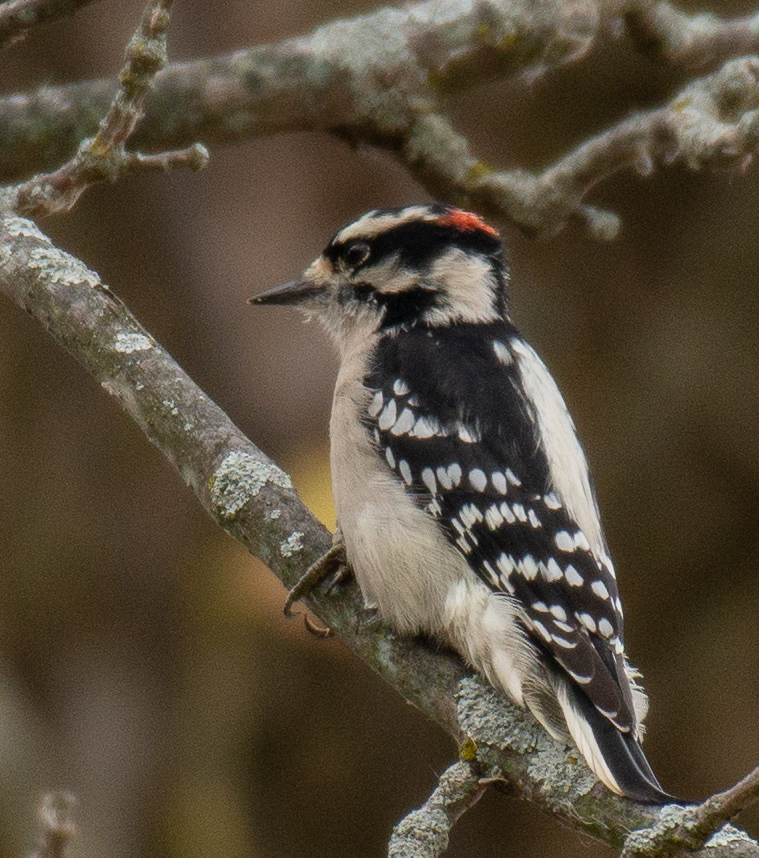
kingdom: Animalia
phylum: Chordata
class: Aves
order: Piciformes
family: Picidae
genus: Dryobates
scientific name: Dryobates pubescens
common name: Downy woodpecker
